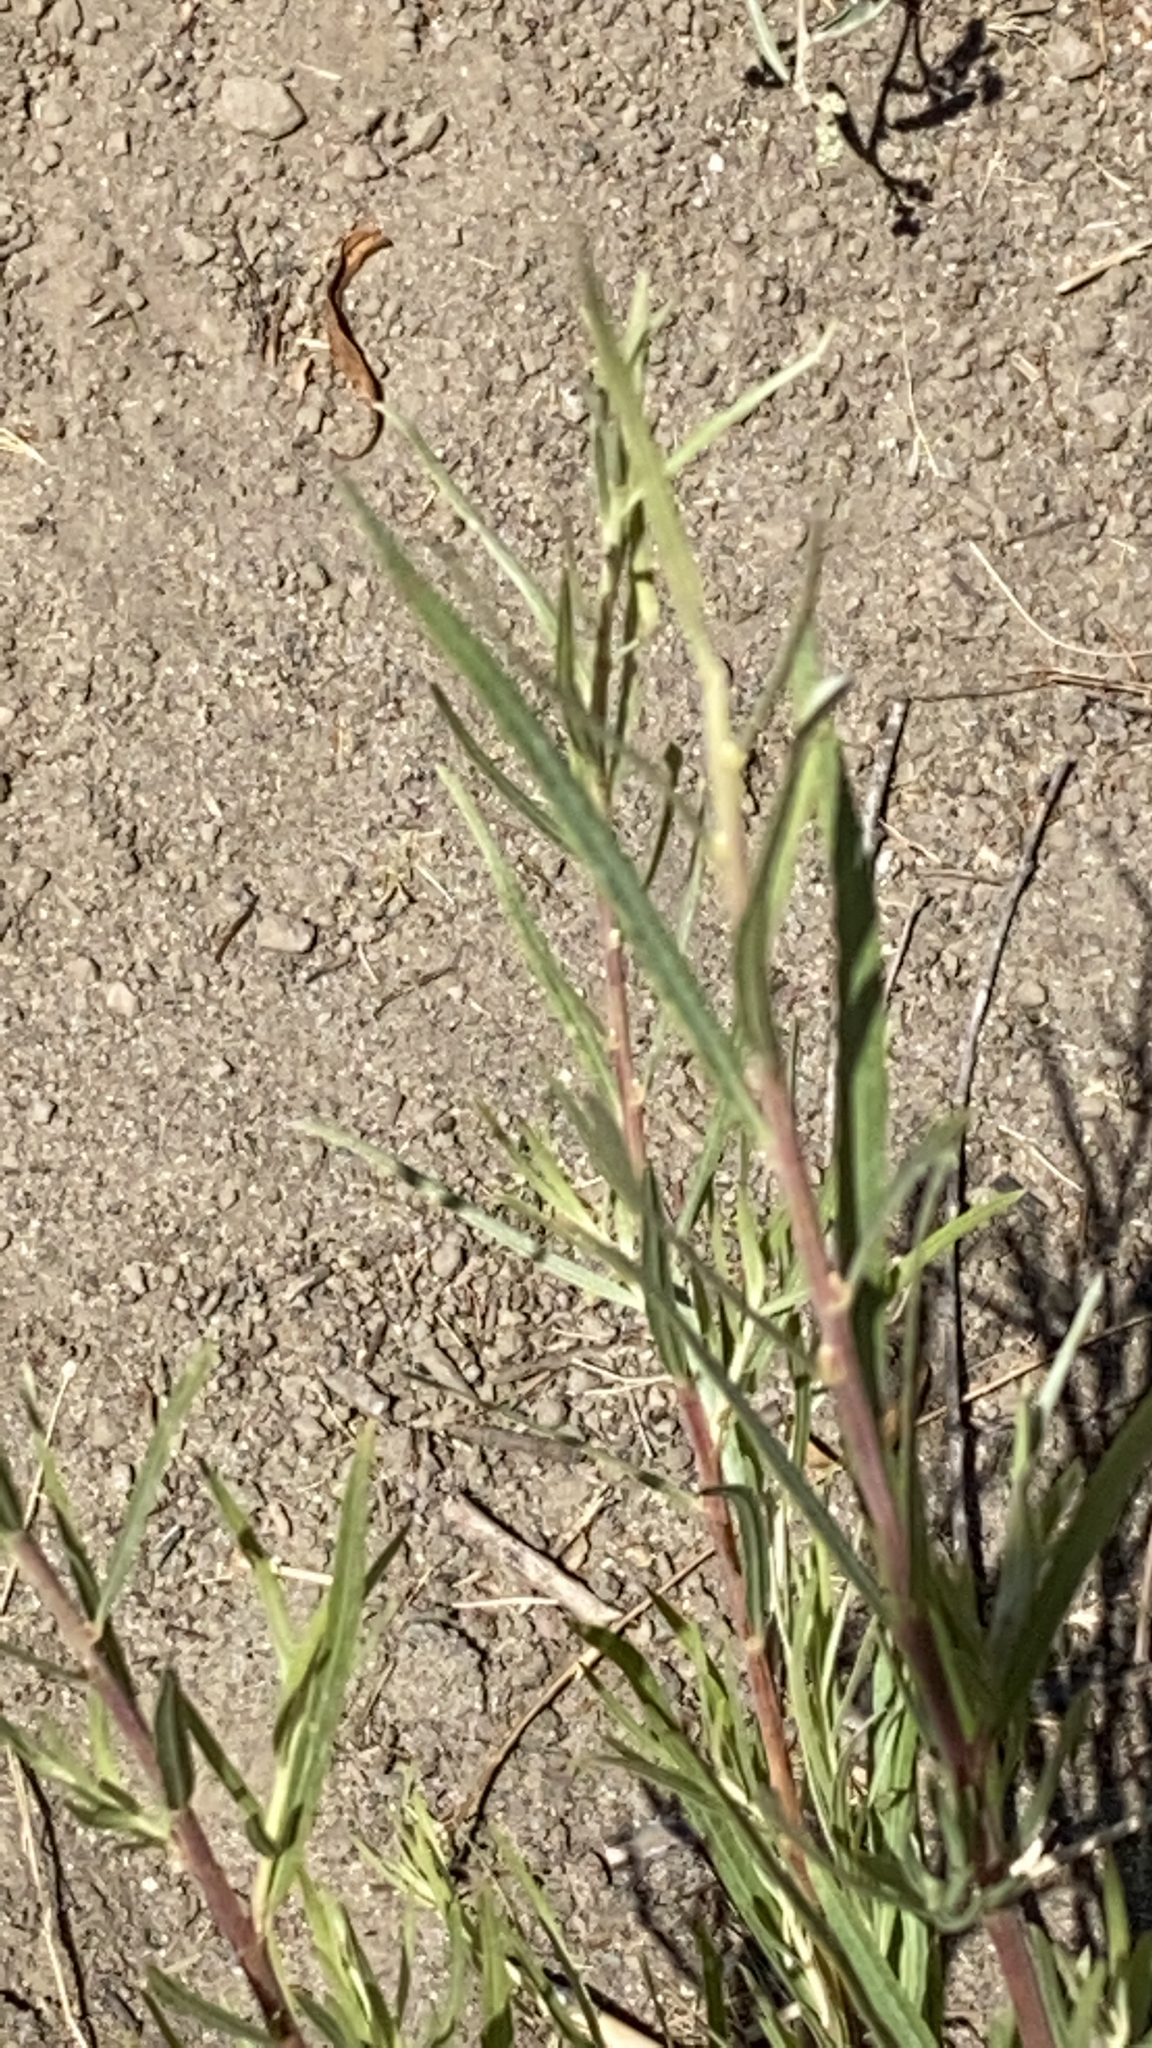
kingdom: Plantae
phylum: Tracheophyta
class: Magnoliopsida
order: Malpighiales
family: Salicaceae
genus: Salix
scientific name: Salix exigua
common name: Coyote willow
